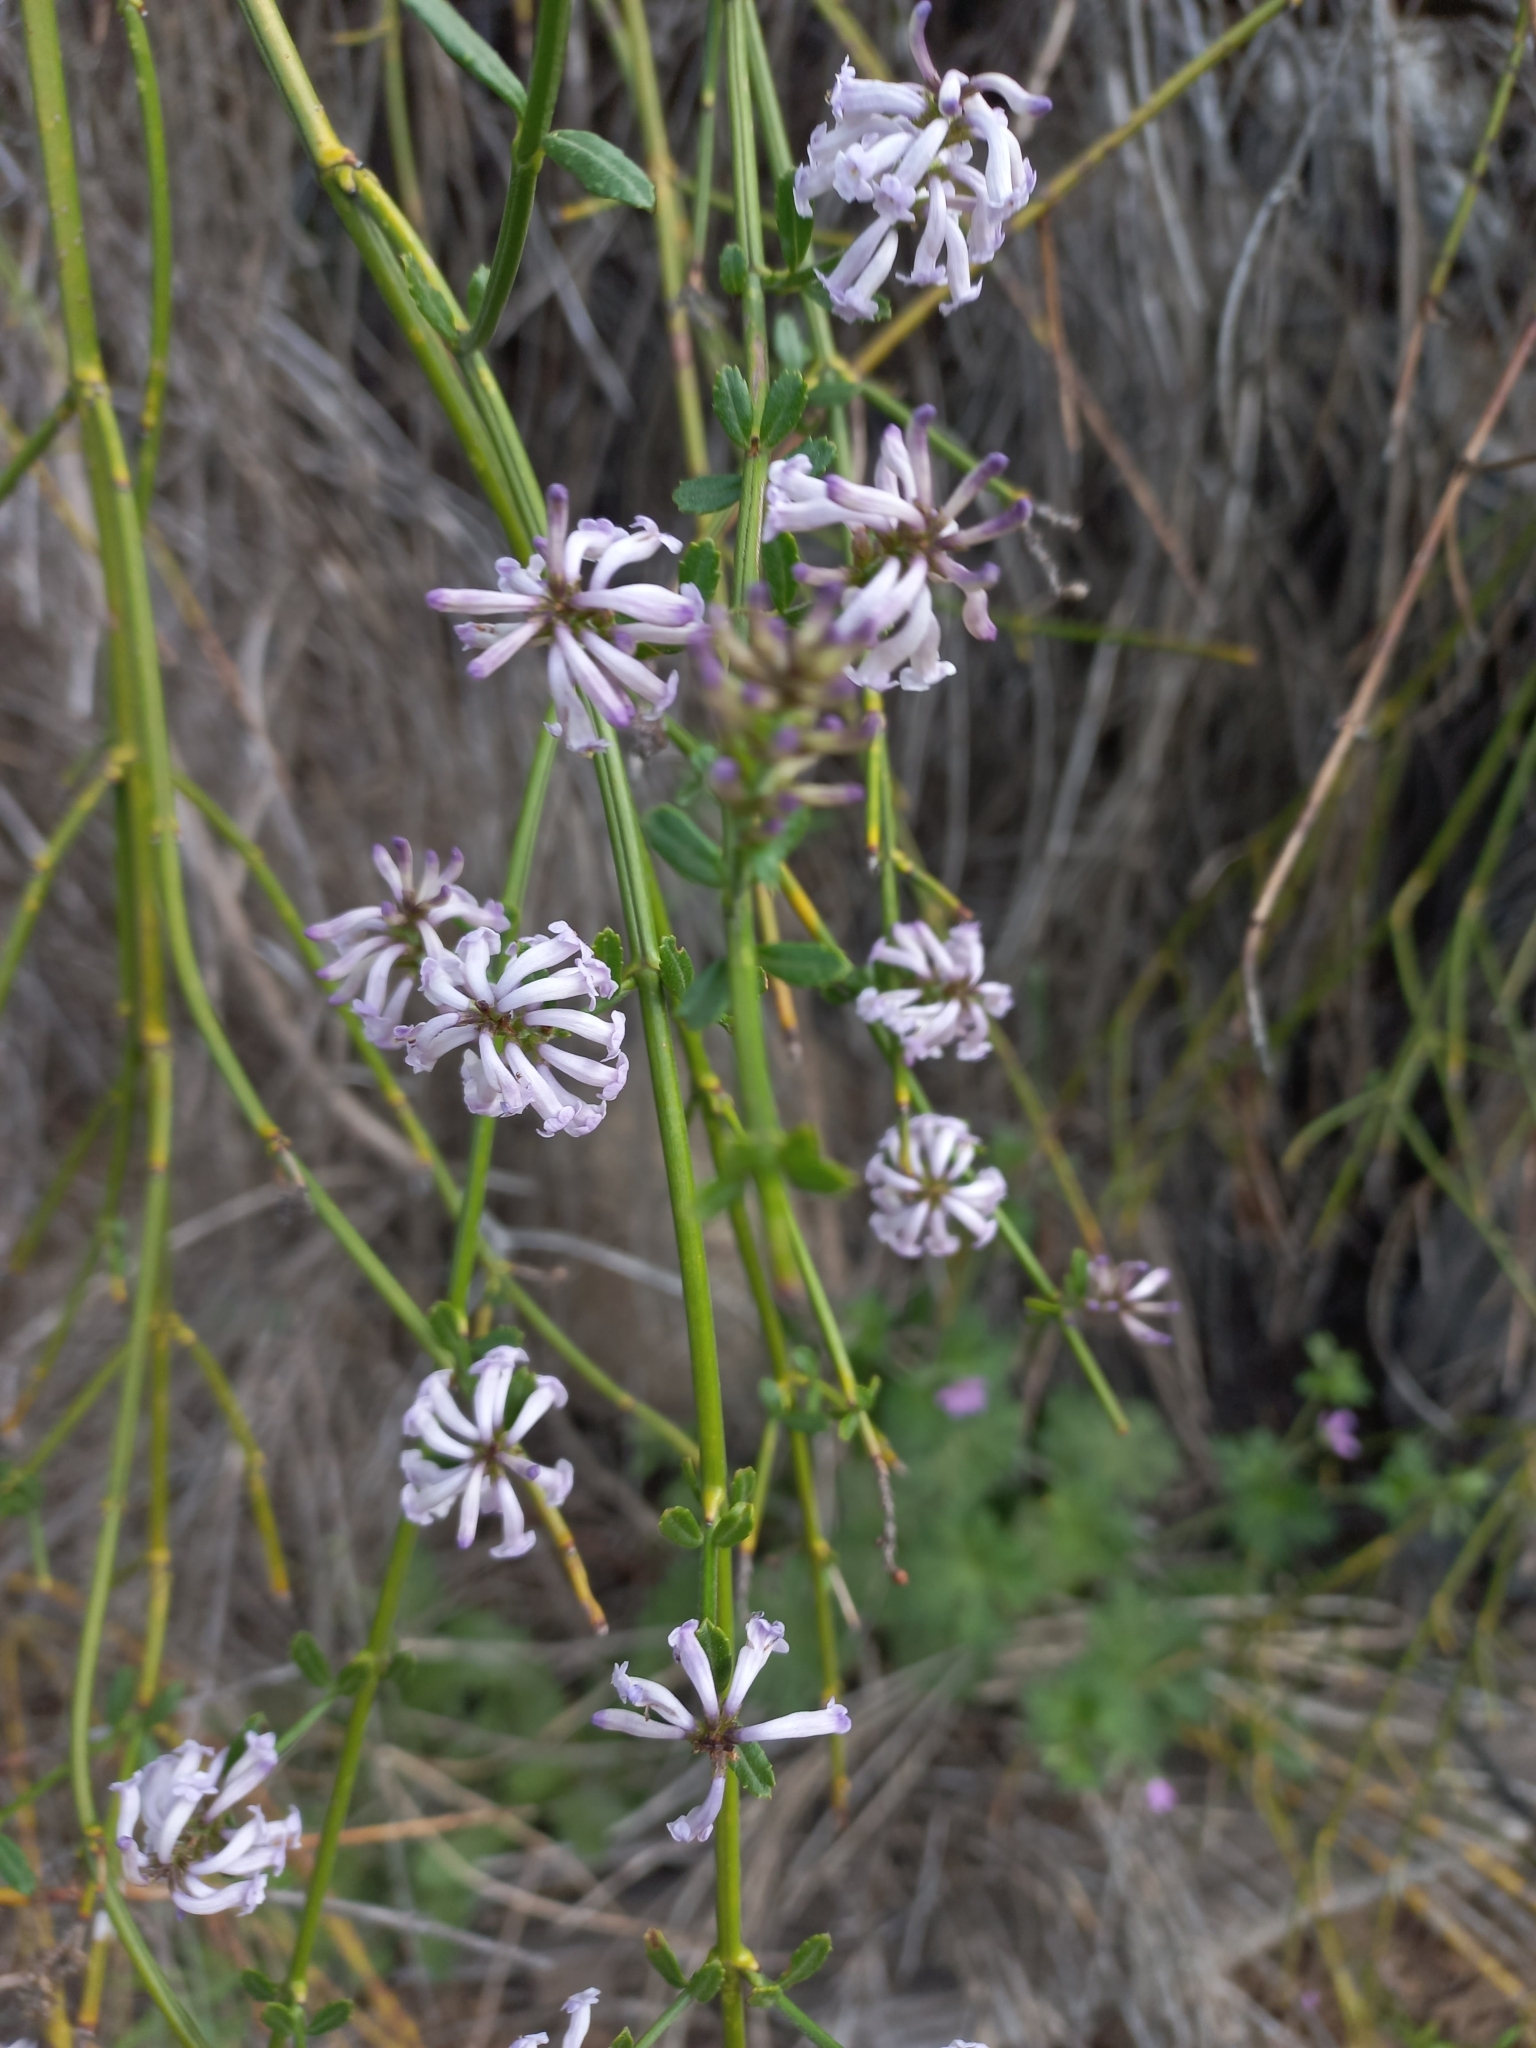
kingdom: Plantae
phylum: Tracheophyta
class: Magnoliopsida
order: Lamiales
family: Verbenaceae
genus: Diostea
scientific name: Diostea juncea
